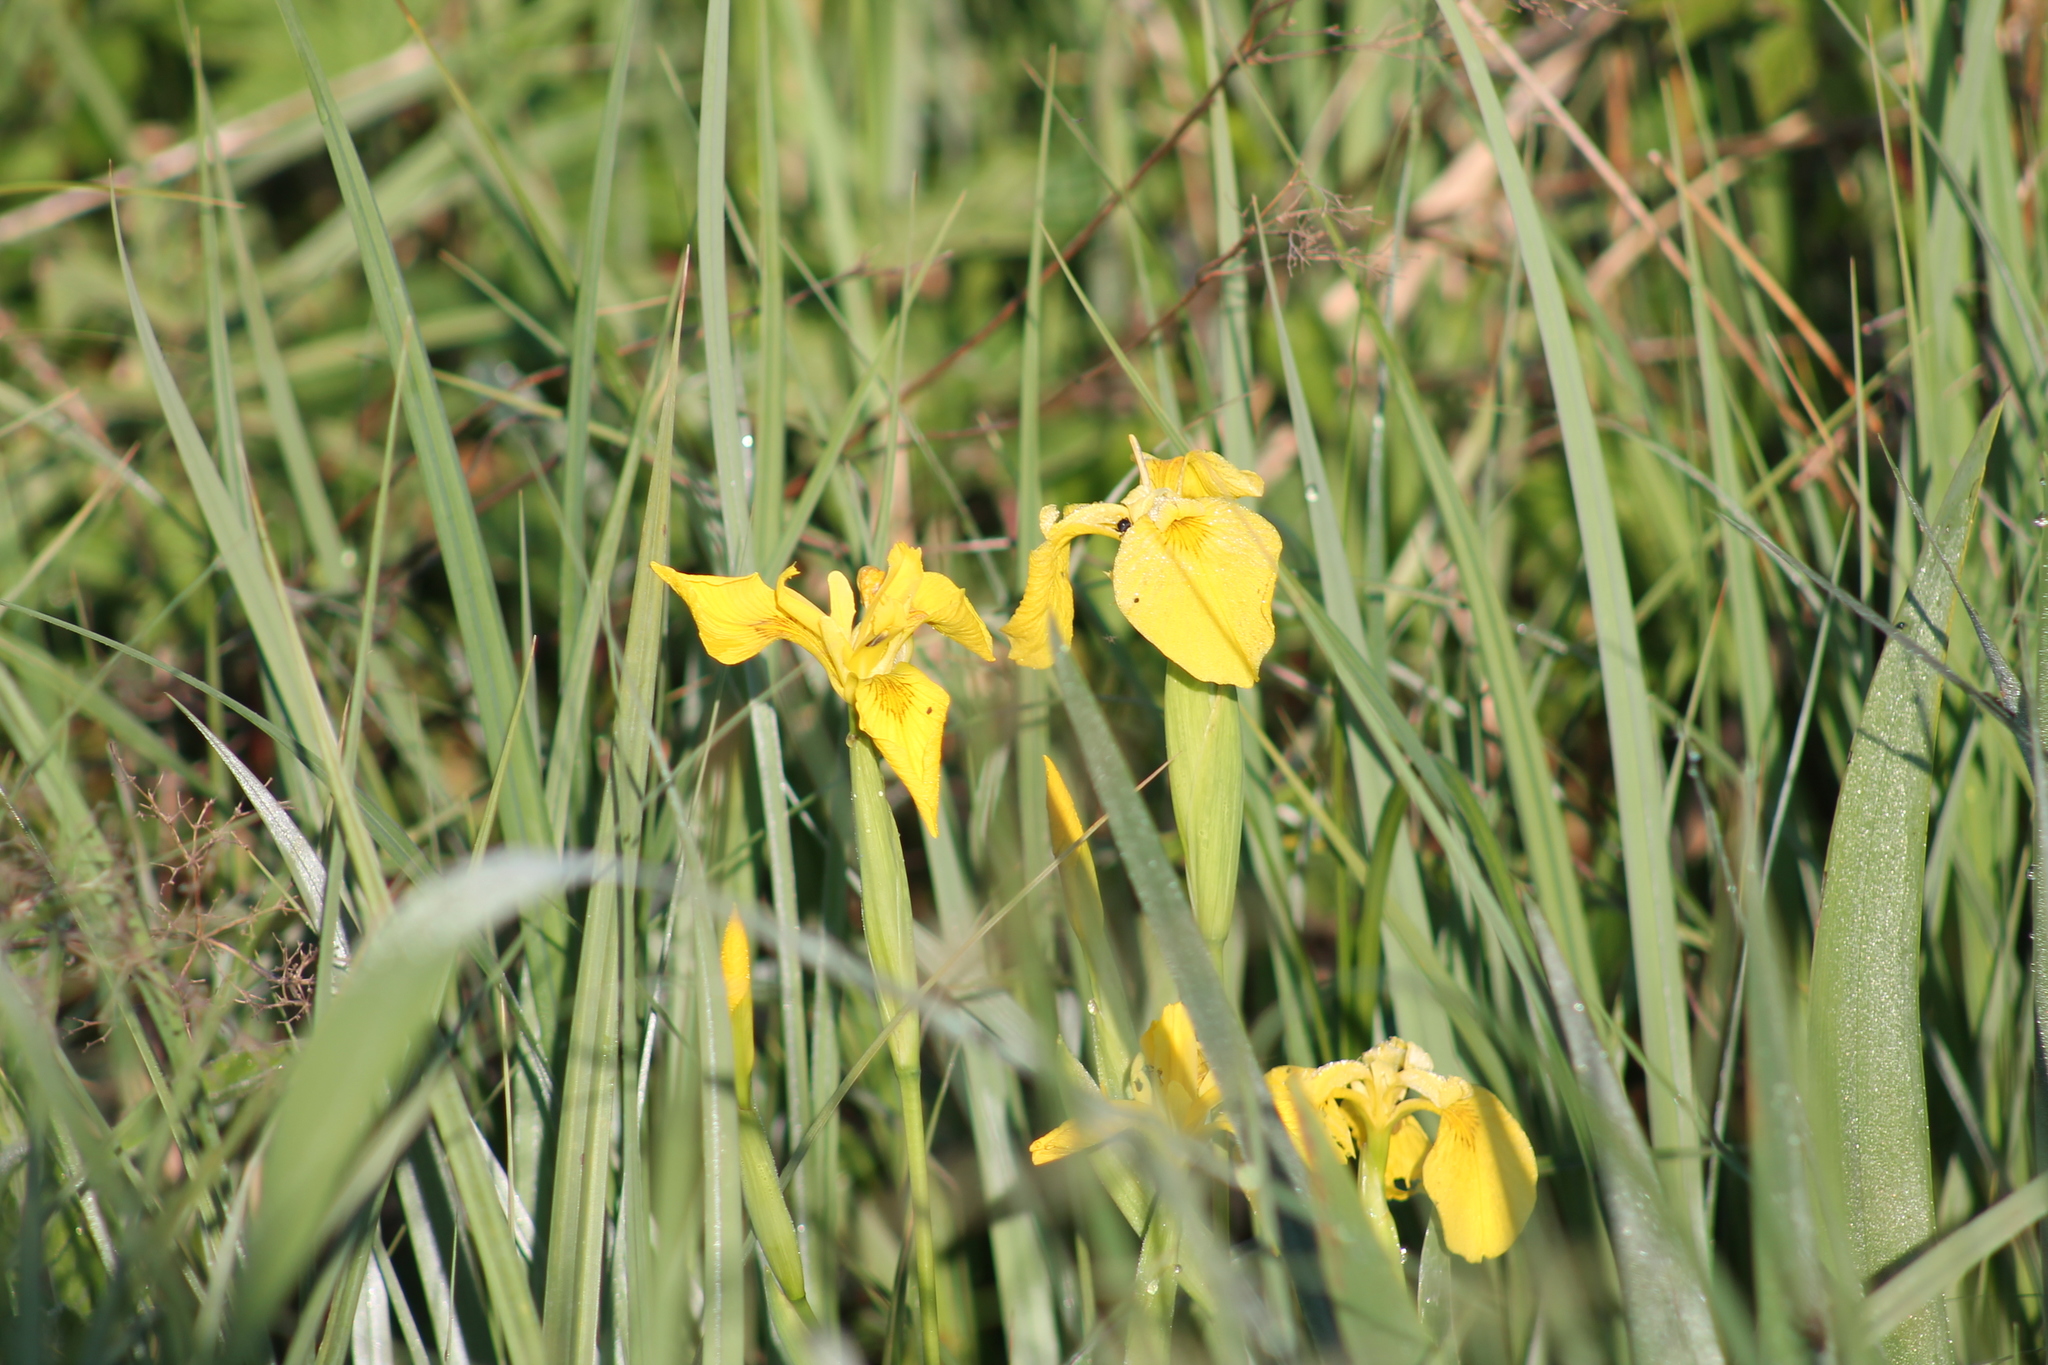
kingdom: Plantae
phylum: Tracheophyta
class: Liliopsida
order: Asparagales
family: Iridaceae
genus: Iris
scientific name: Iris pseudacorus
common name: Yellow flag
